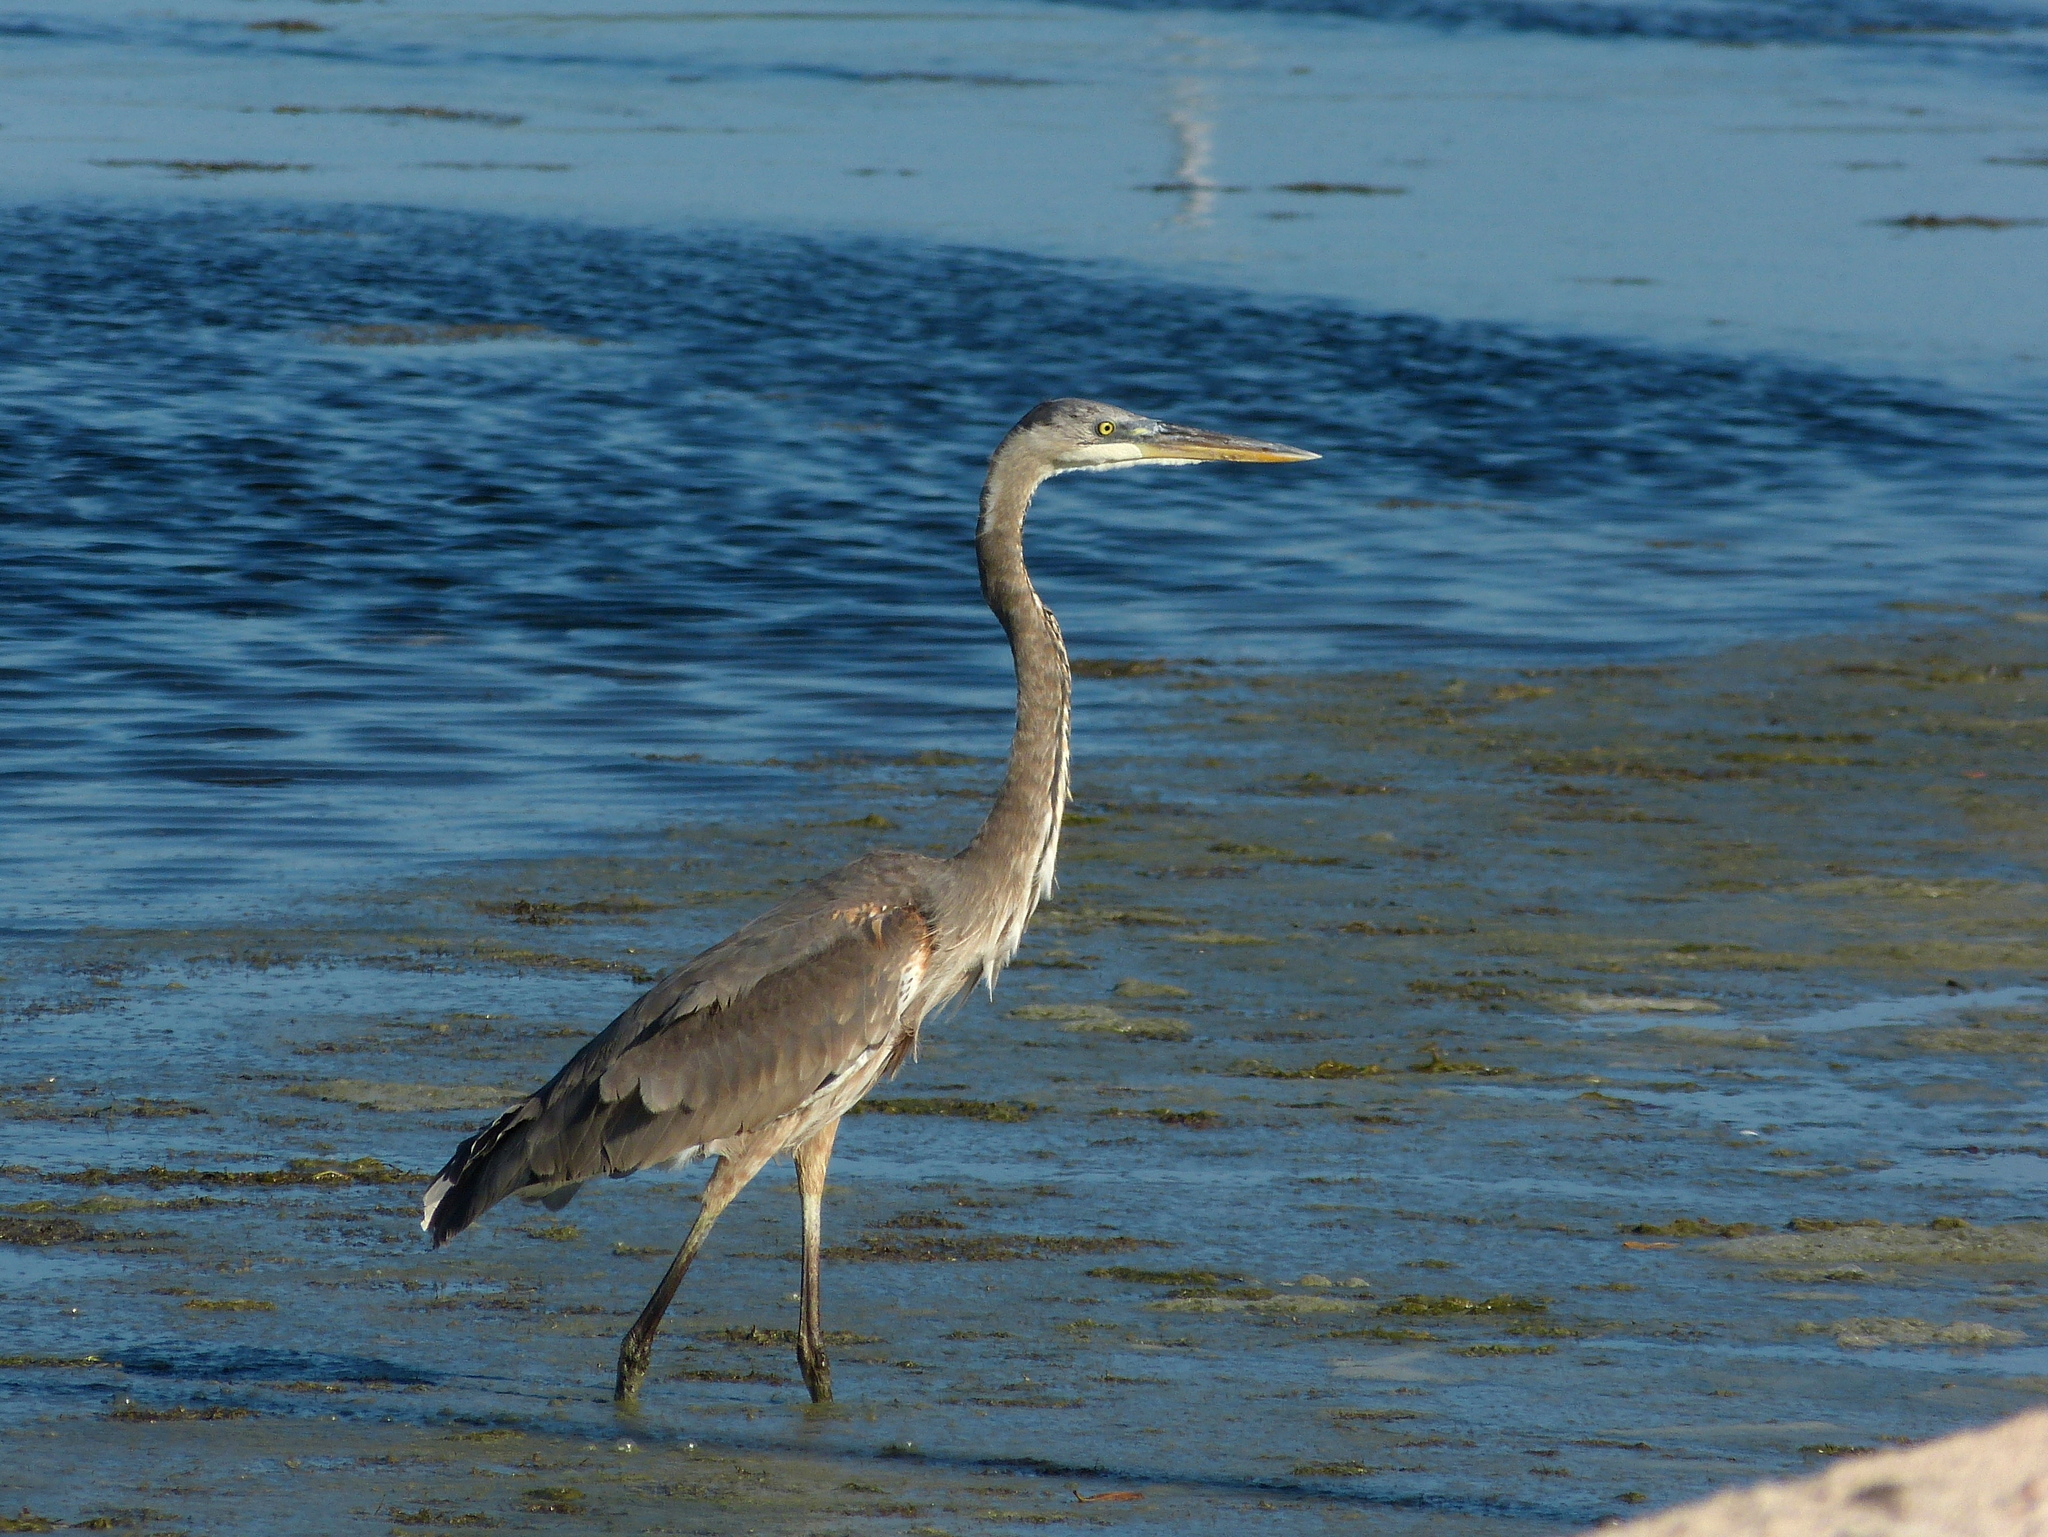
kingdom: Animalia
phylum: Chordata
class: Aves
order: Pelecaniformes
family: Ardeidae
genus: Ardea
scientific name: Ardea herodias
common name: Great blue heron
